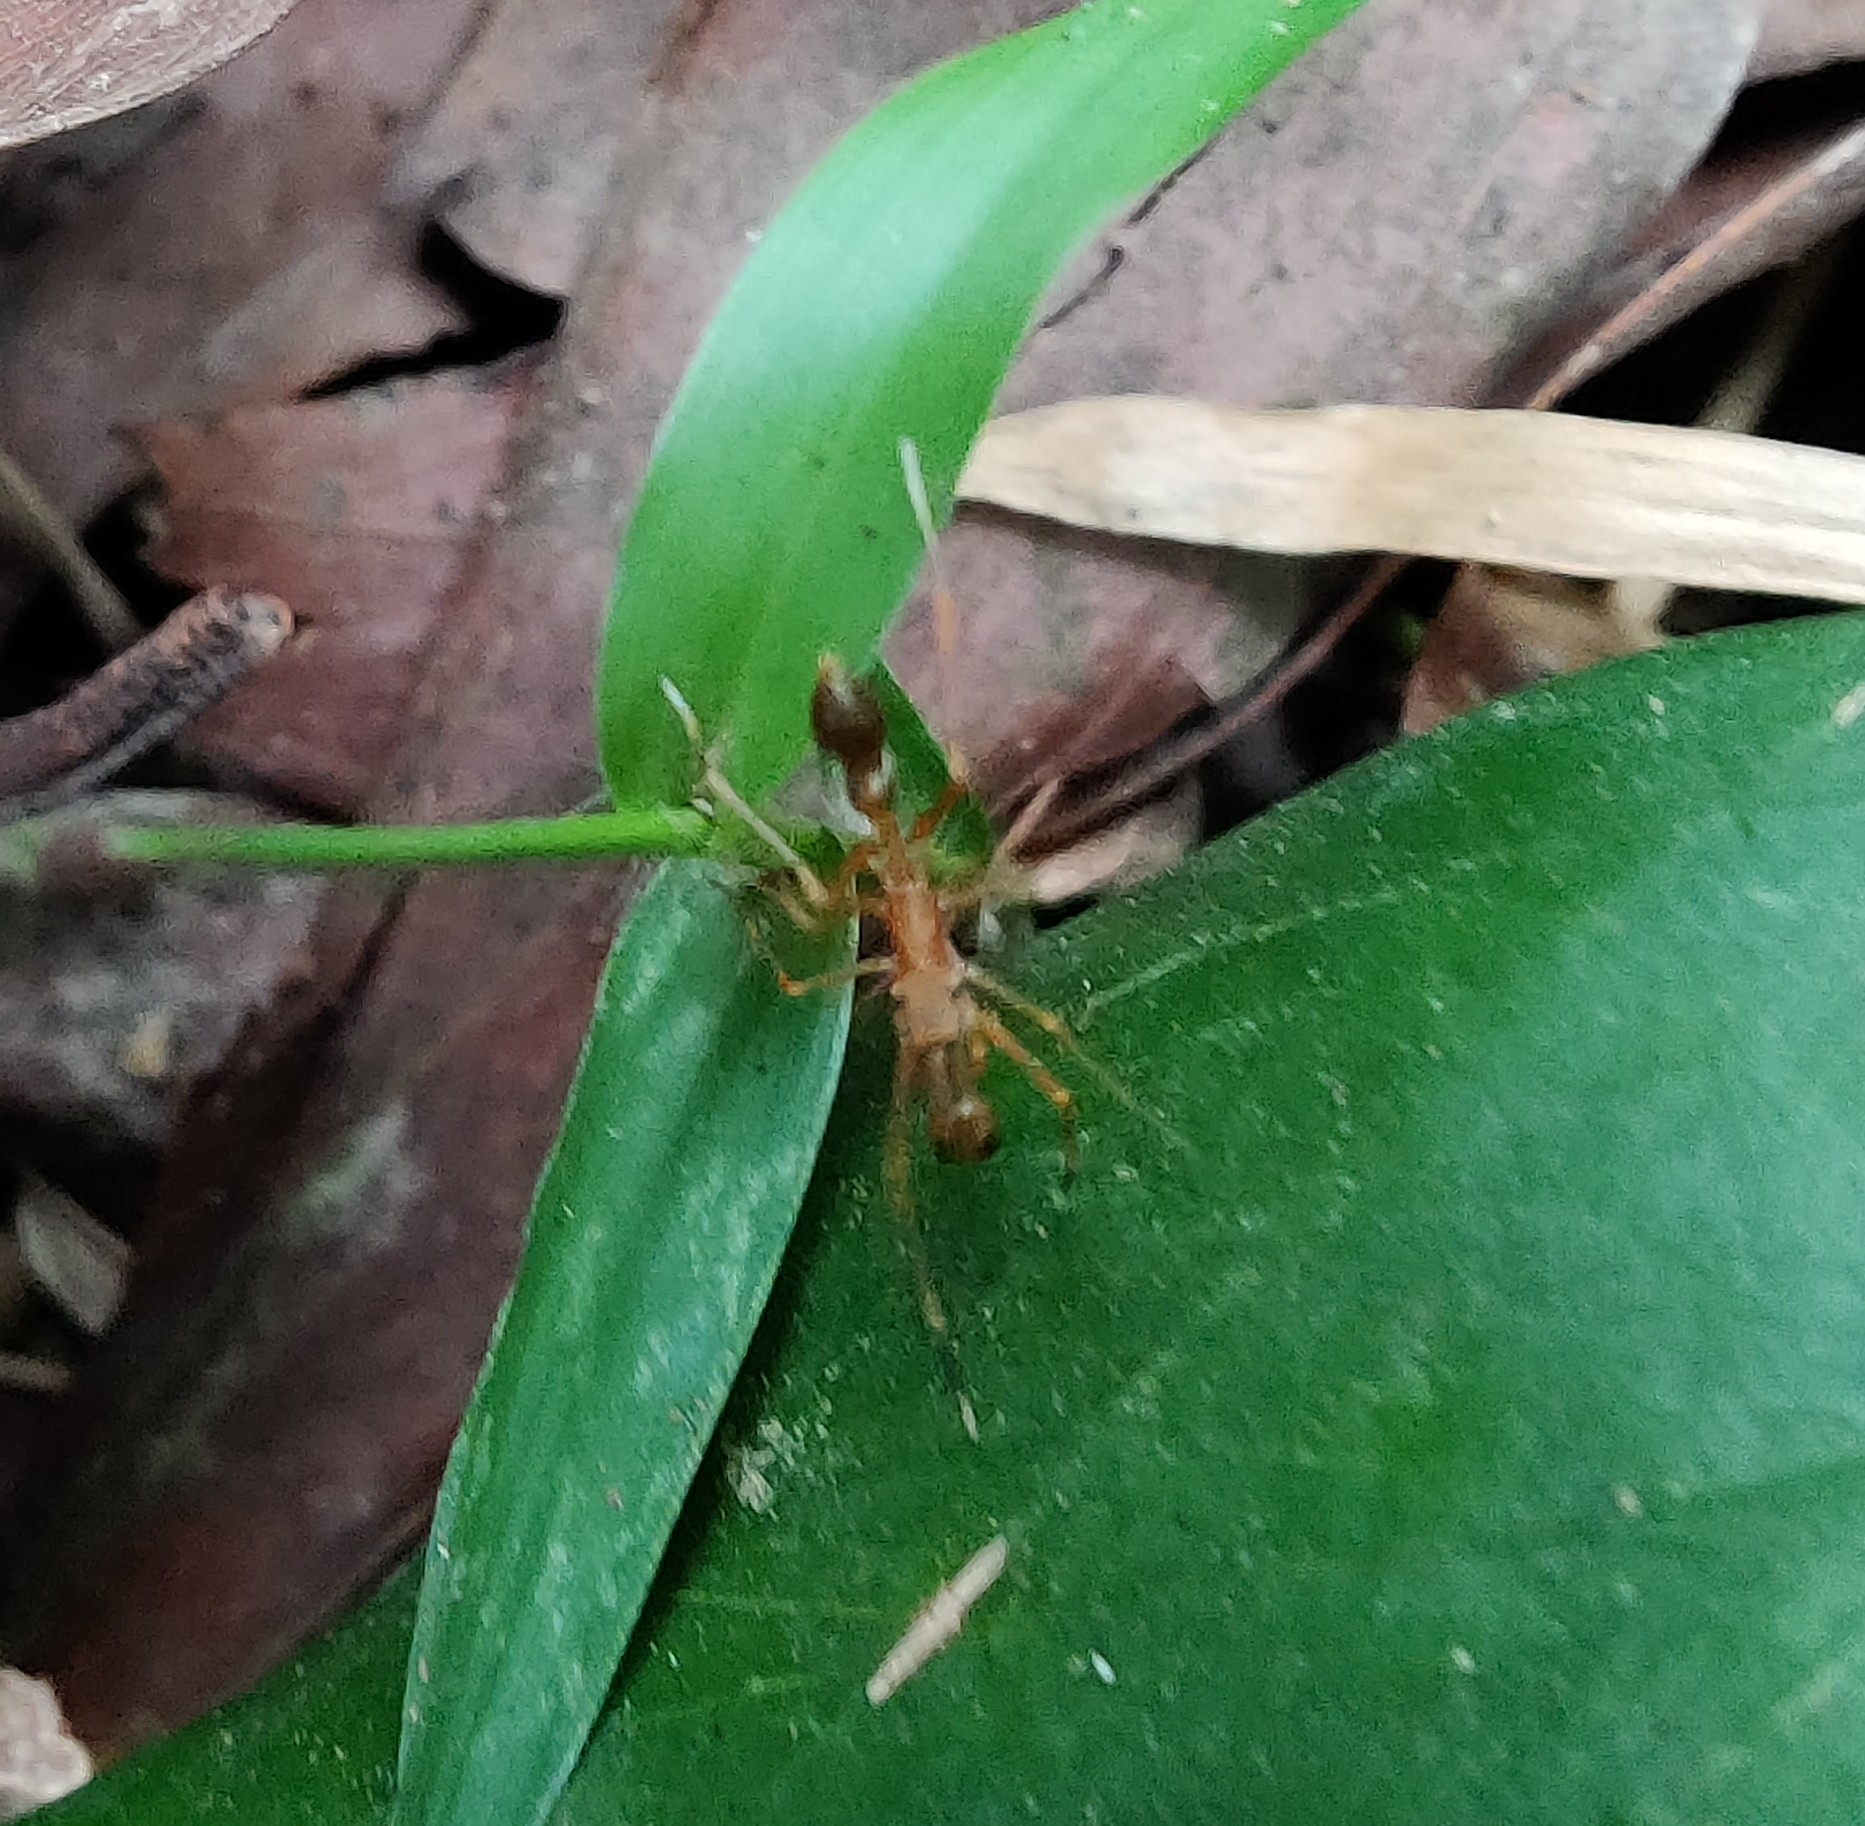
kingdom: Animalia
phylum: Arthropoda
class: Arachnida
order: Araneae
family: Salticidae
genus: Myrmaplata
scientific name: Myrmaplata plataleoides
